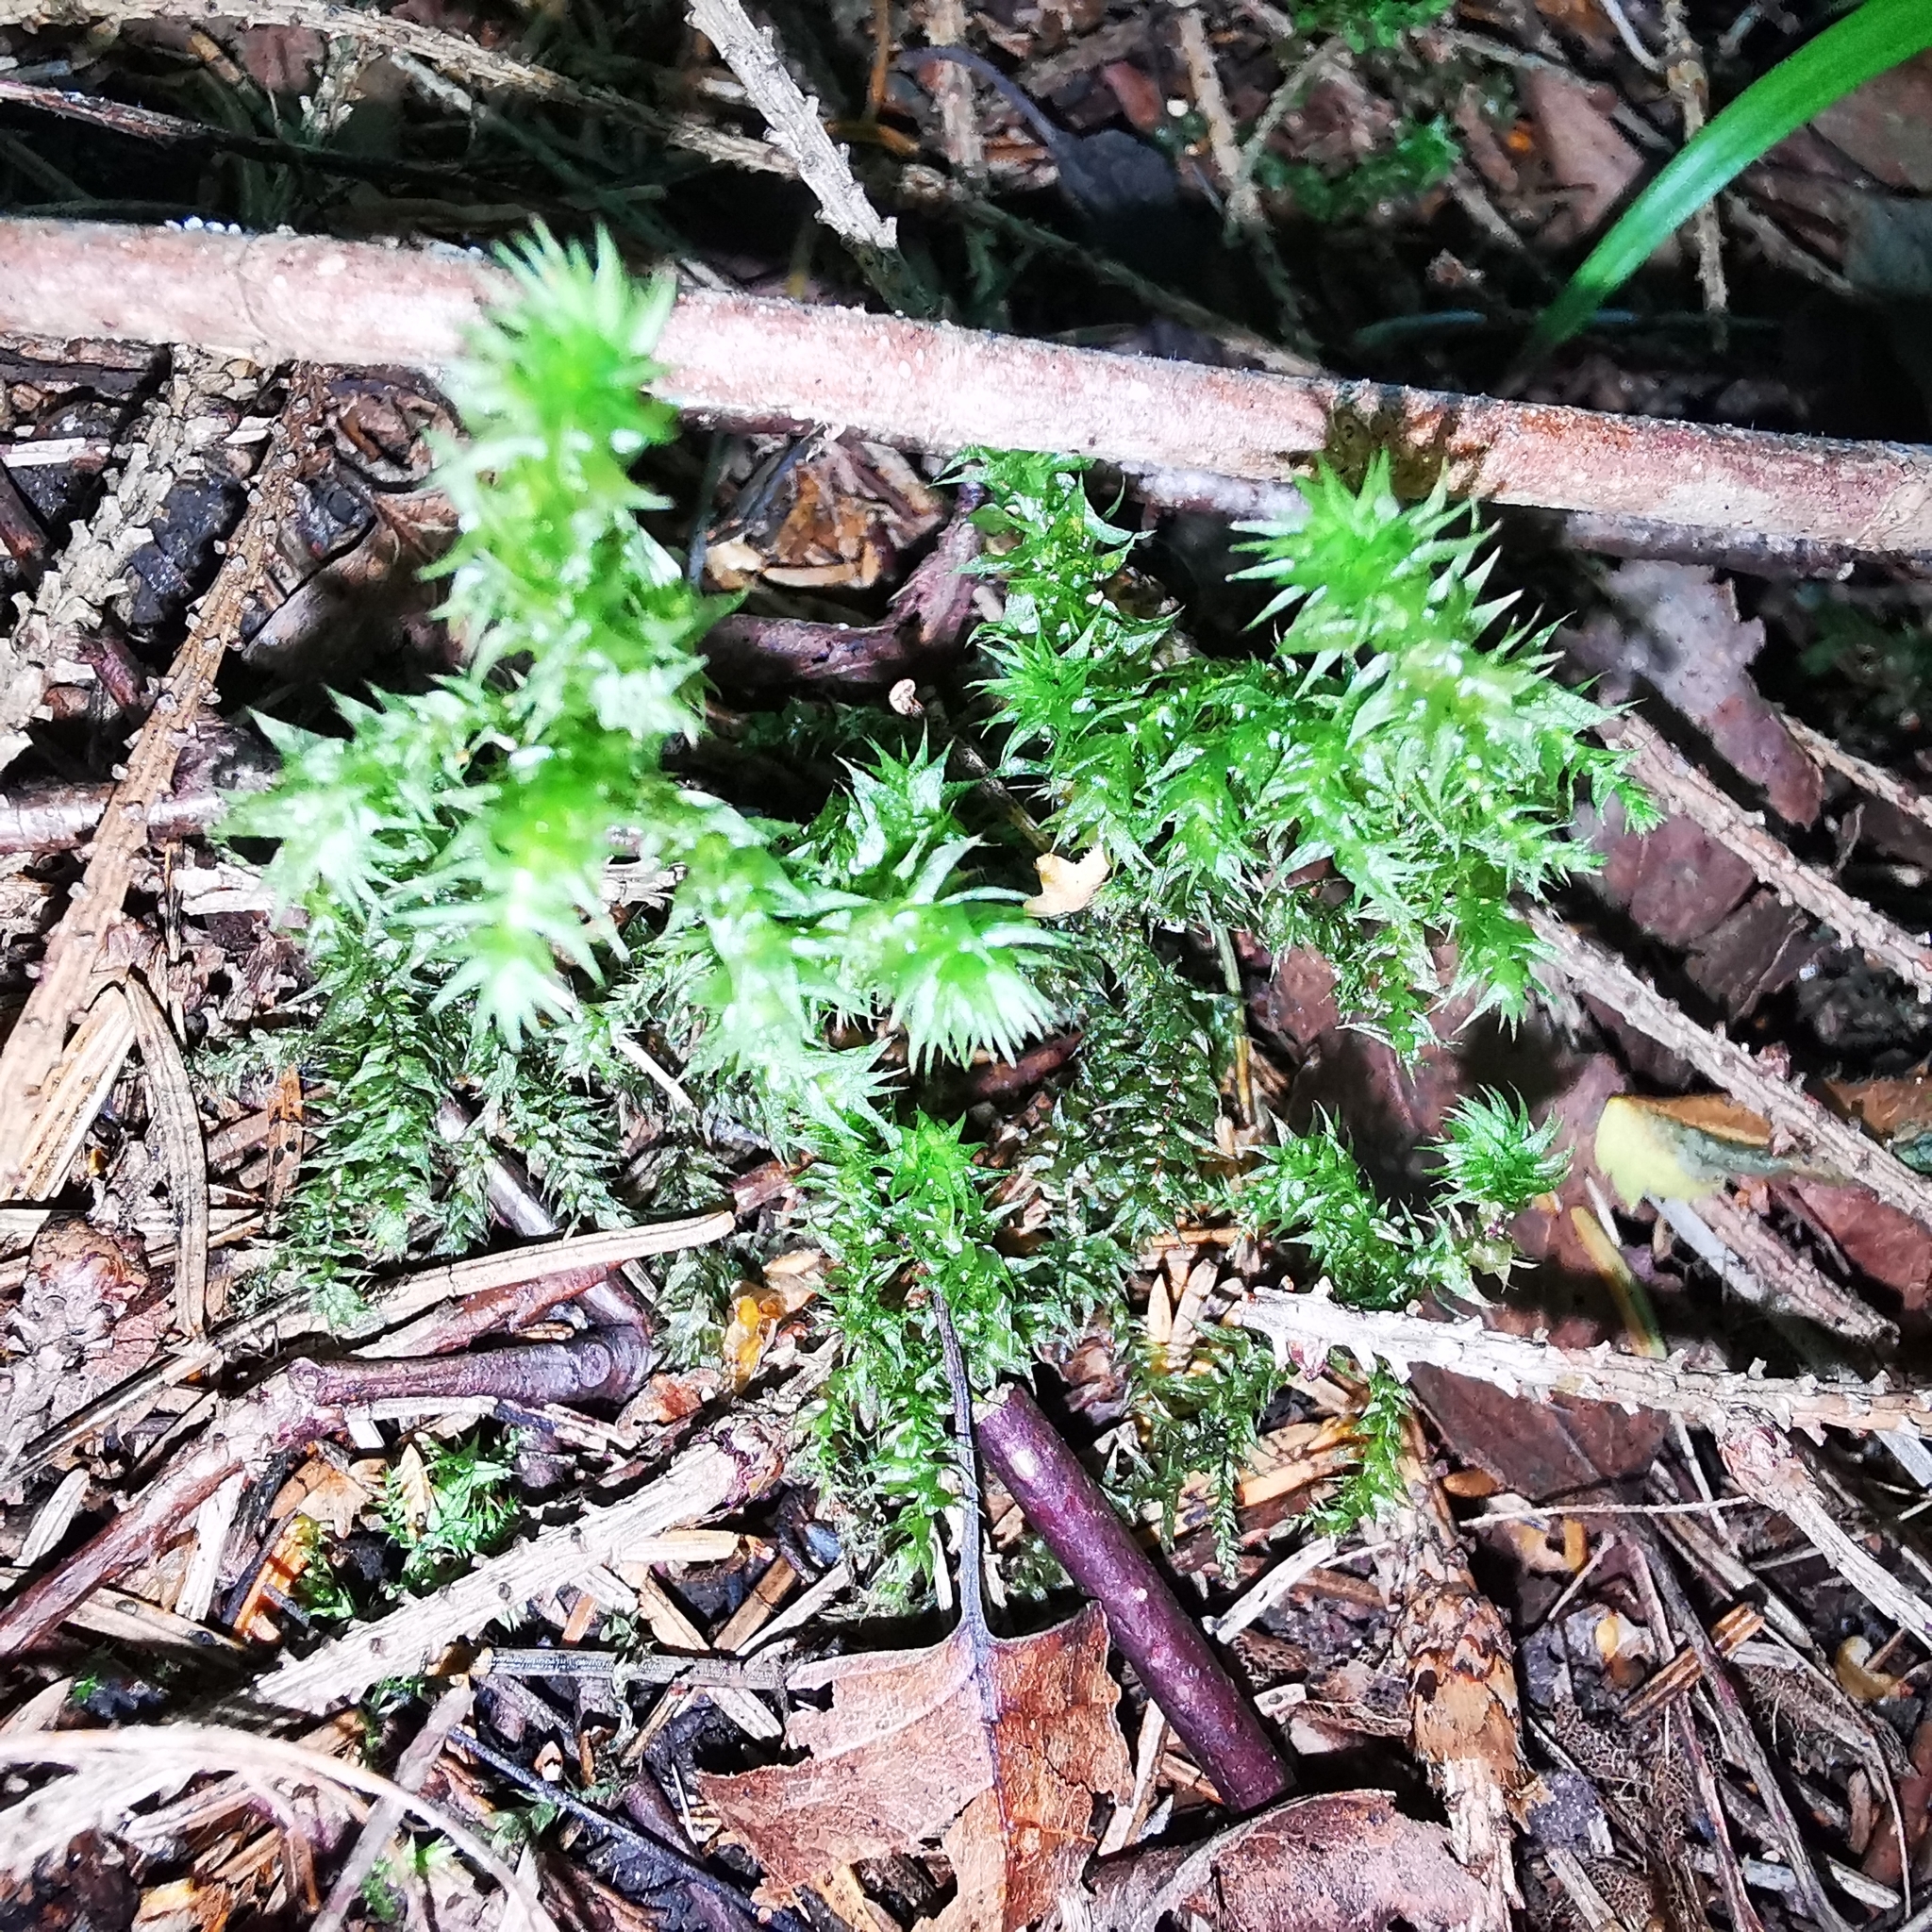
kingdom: Plantae
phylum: Bryophyta
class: Bryopsida
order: Hypnales
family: Hylocomiaceae
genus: Hylocomiadelphus
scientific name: Hylocomiadelphus triquetrus
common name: Rough goose neck moss
